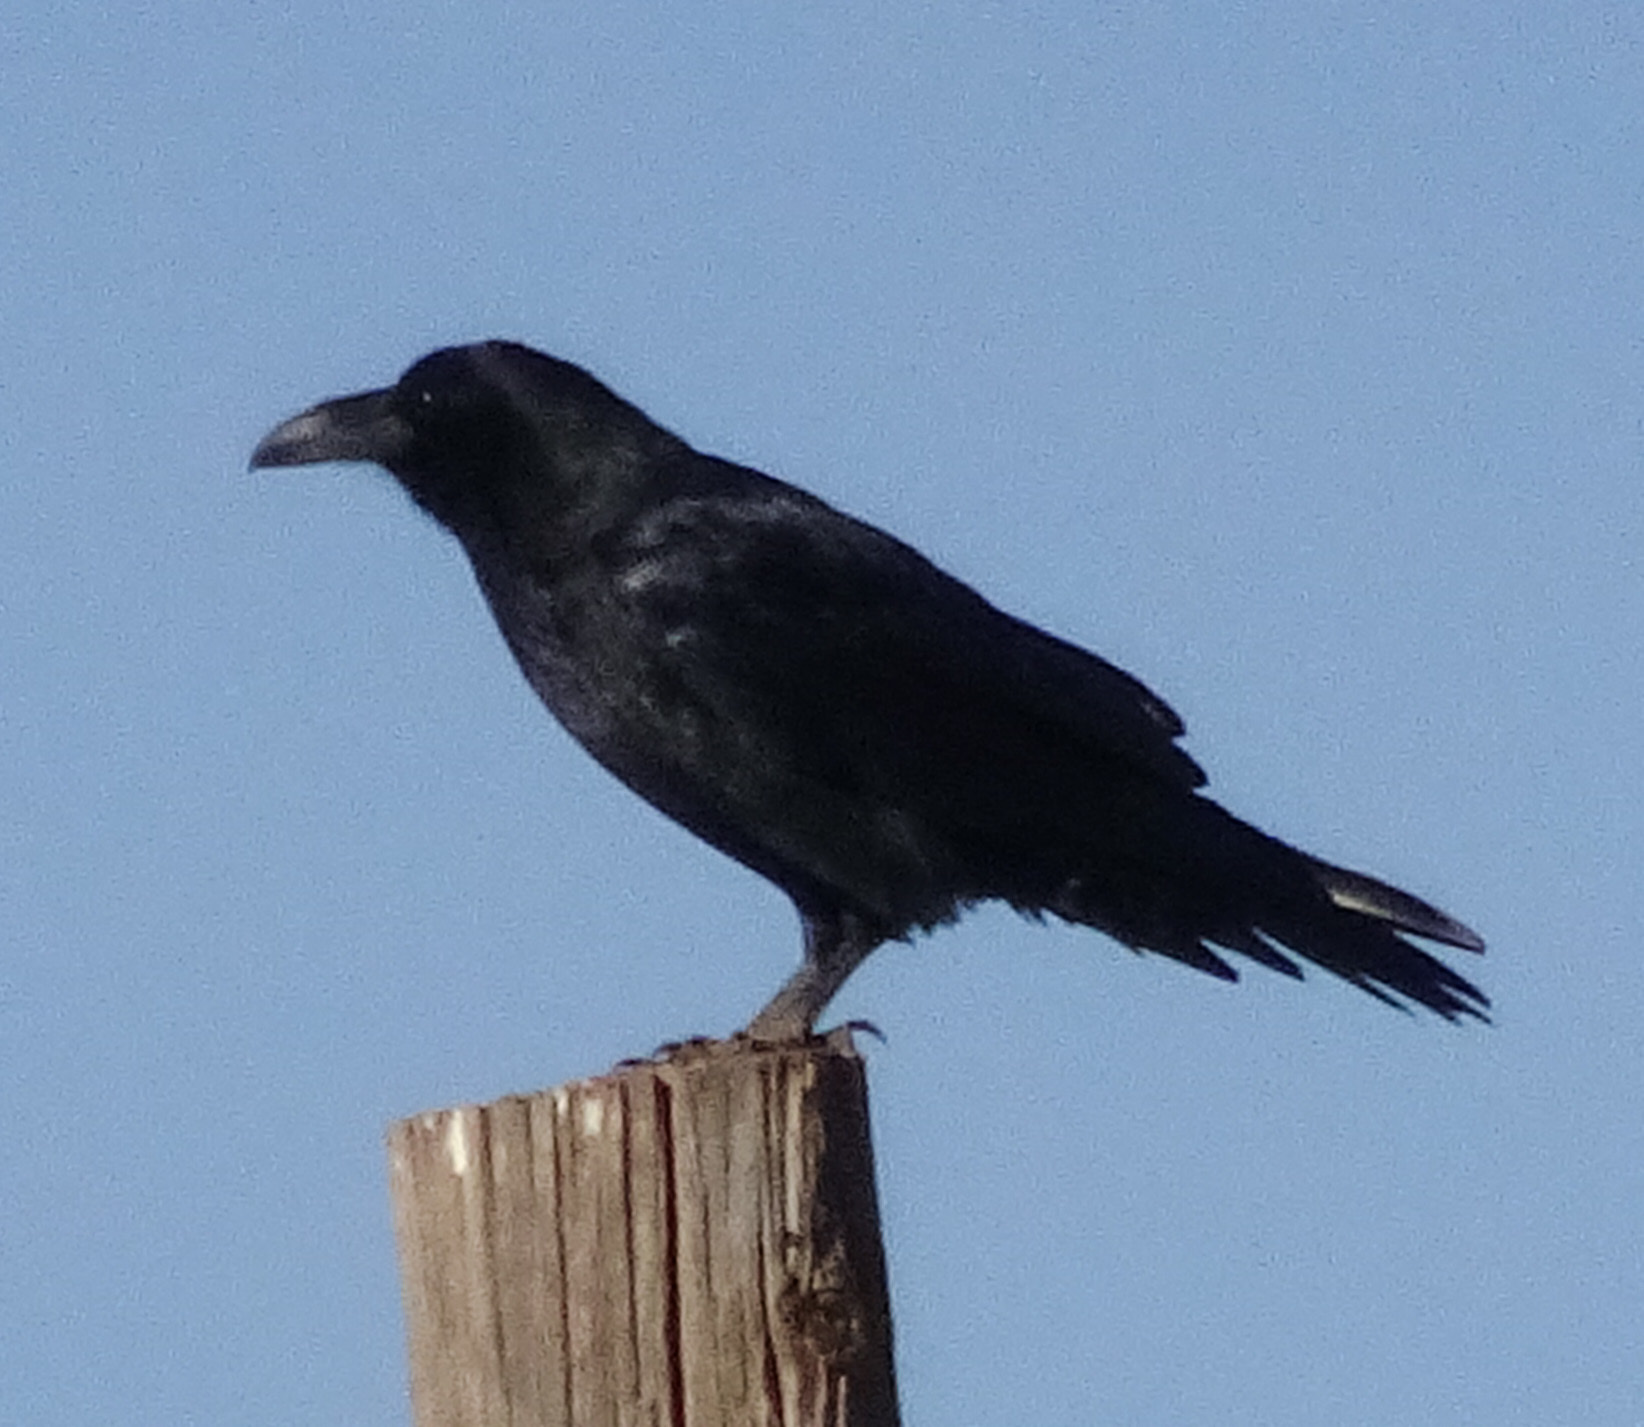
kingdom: Animalia
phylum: Chordata
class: Aves
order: Passeriformes
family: Corvidae
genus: Corvus
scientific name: Corvus corax
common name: Common raven
